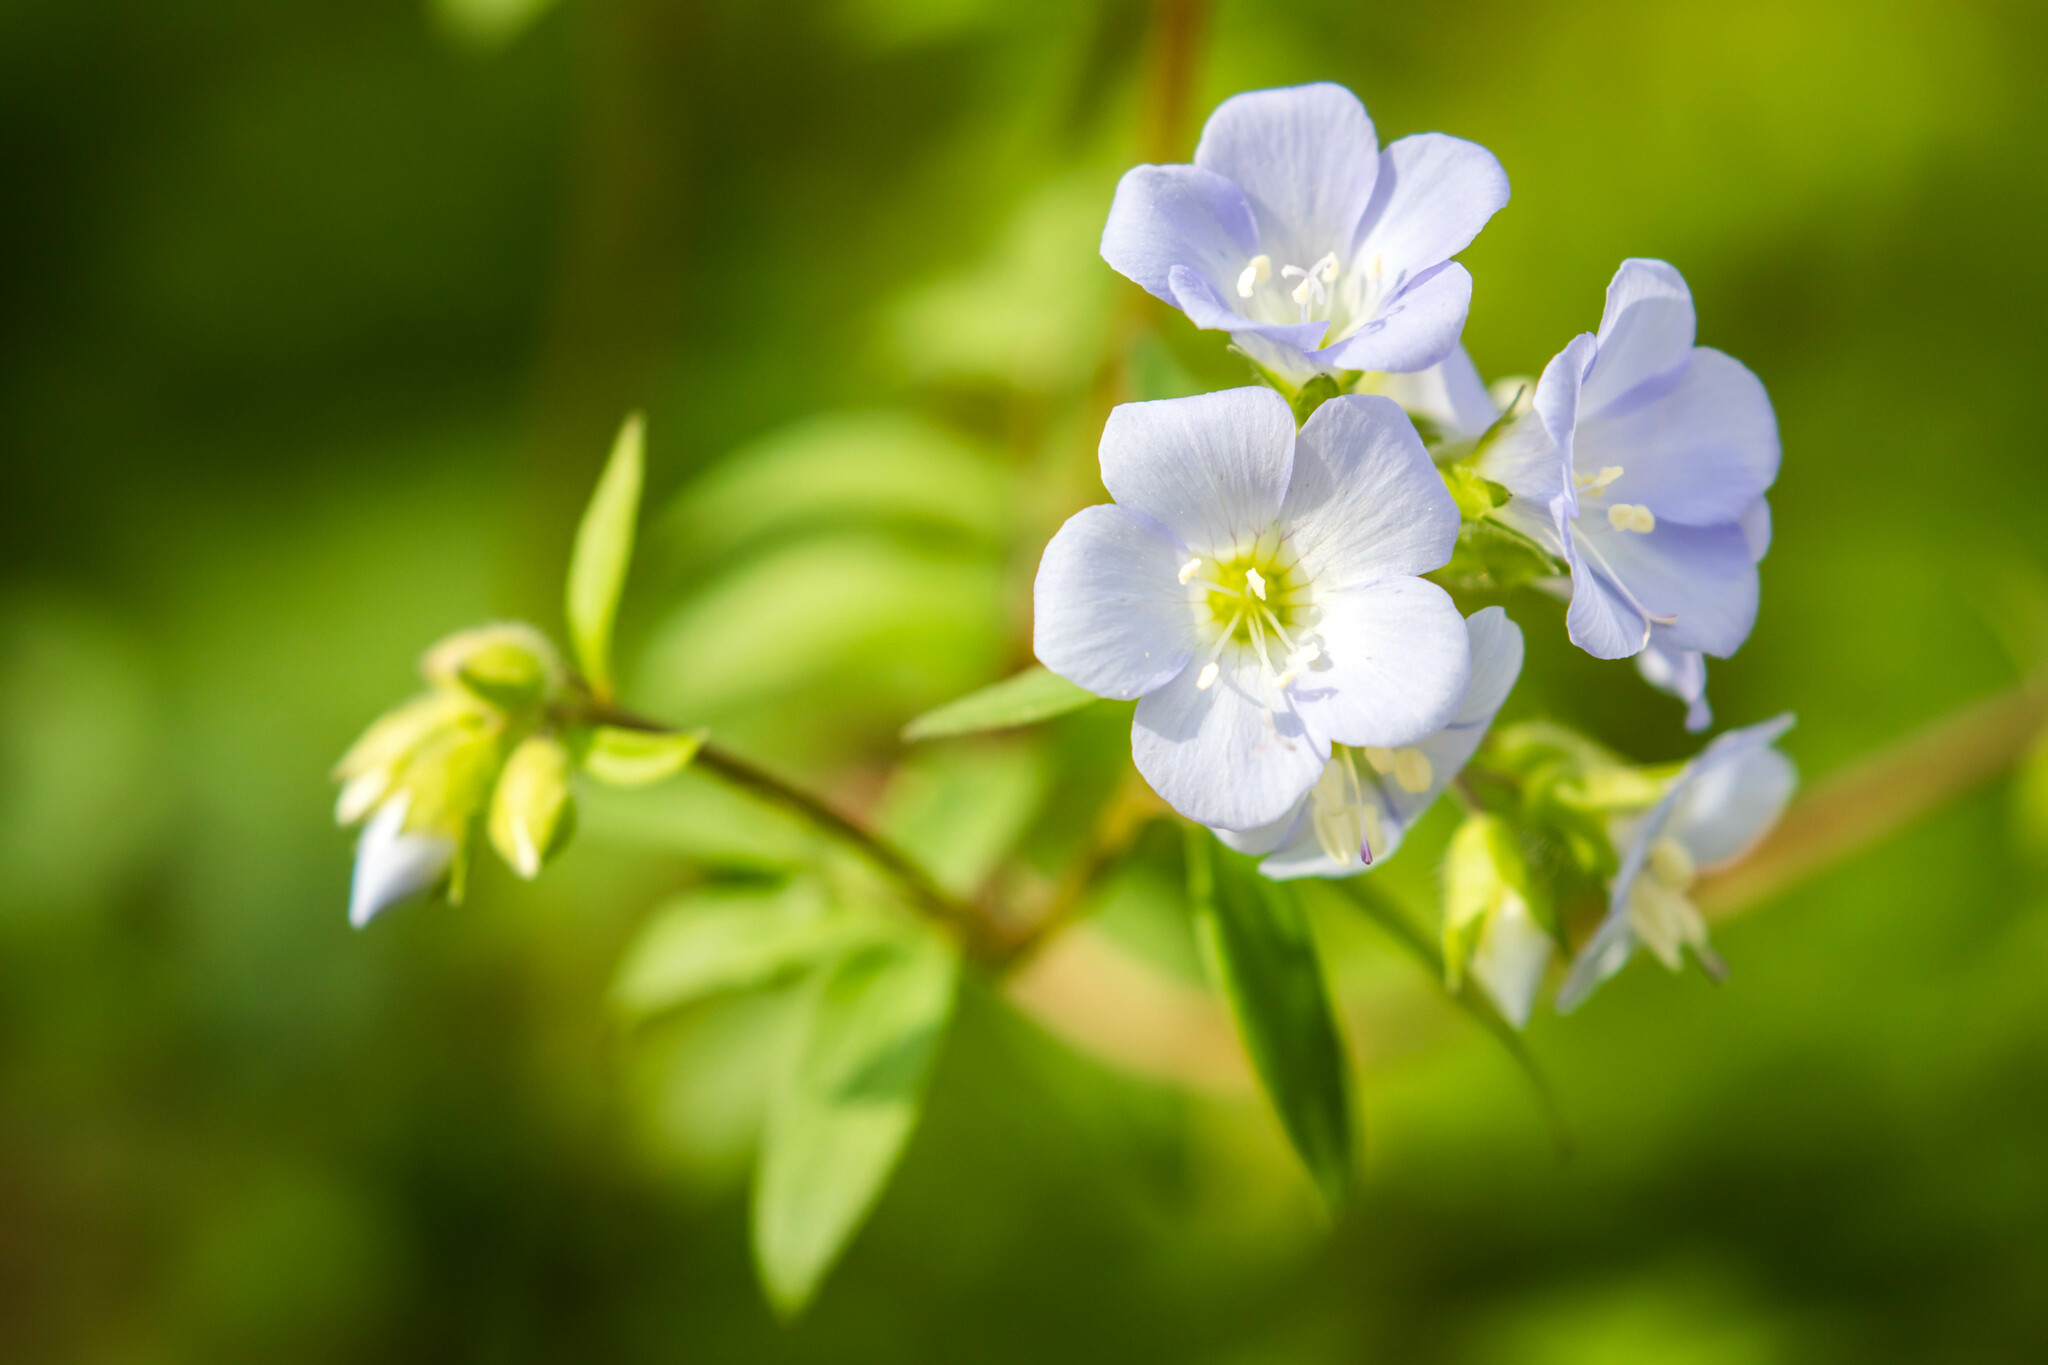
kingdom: Plantae
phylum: Tracheophyta
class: Magnoliopsida
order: Ericales
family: Polemoniaceae
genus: Polemonium
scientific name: Polemonium reptans
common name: Creeping jacob's-ladder
